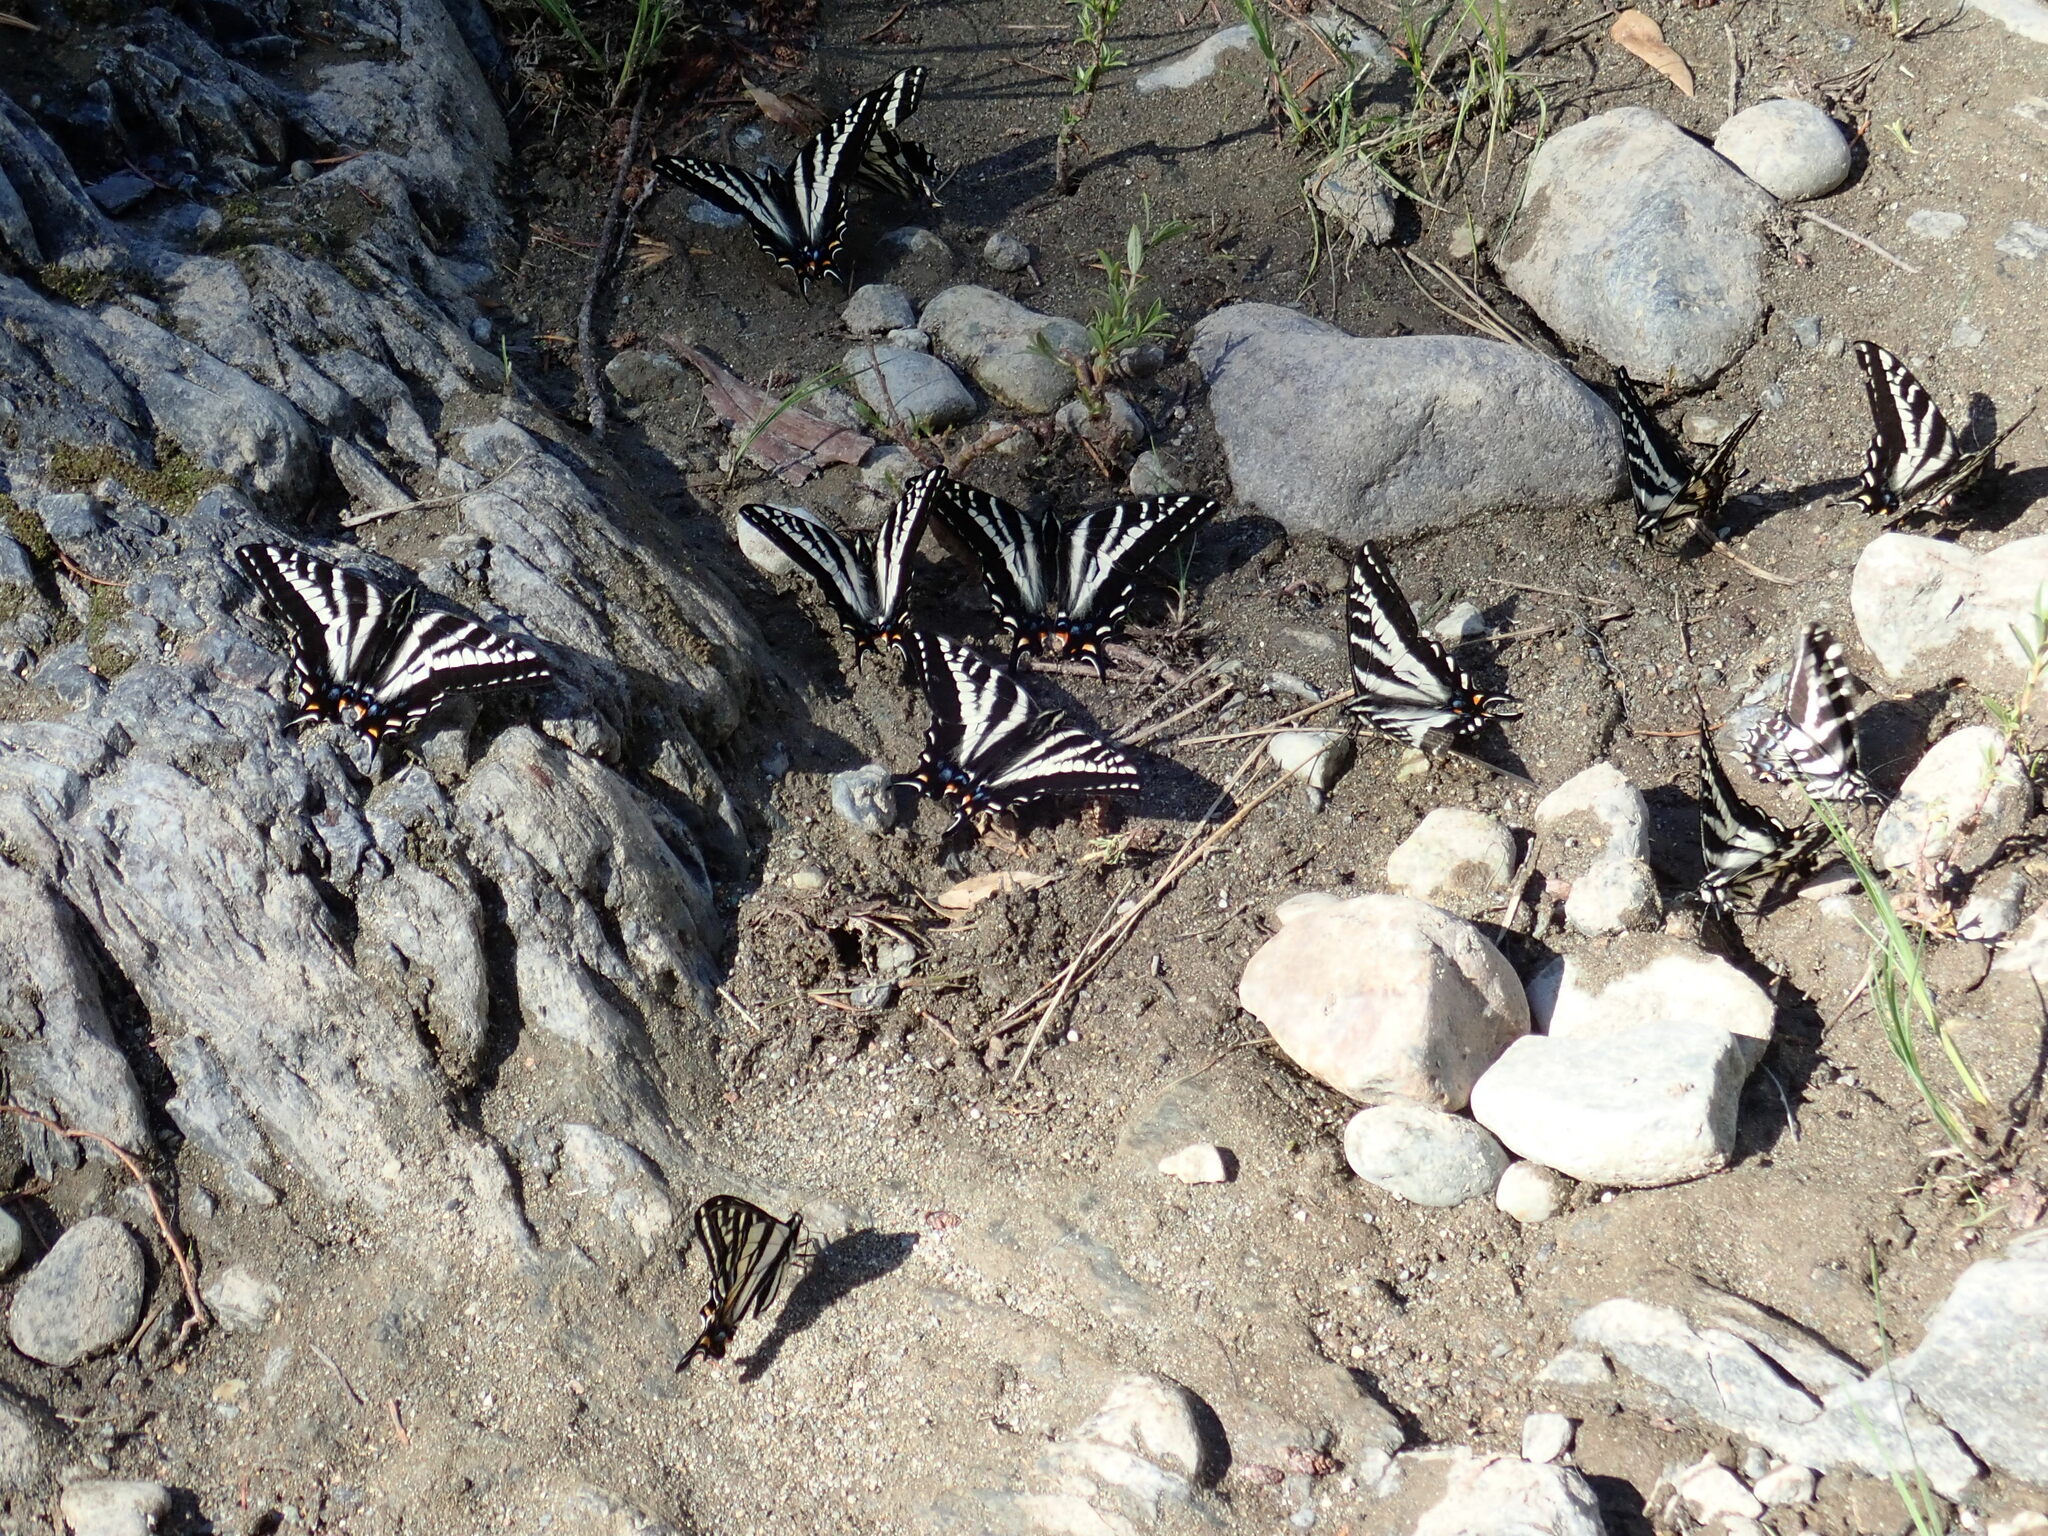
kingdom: Animalia
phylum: Arthropoda
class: Insecta
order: Lepidoptera
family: Papilionidae
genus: Papilio
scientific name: Papilio eurymedon
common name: Pale tiger swallowtail
